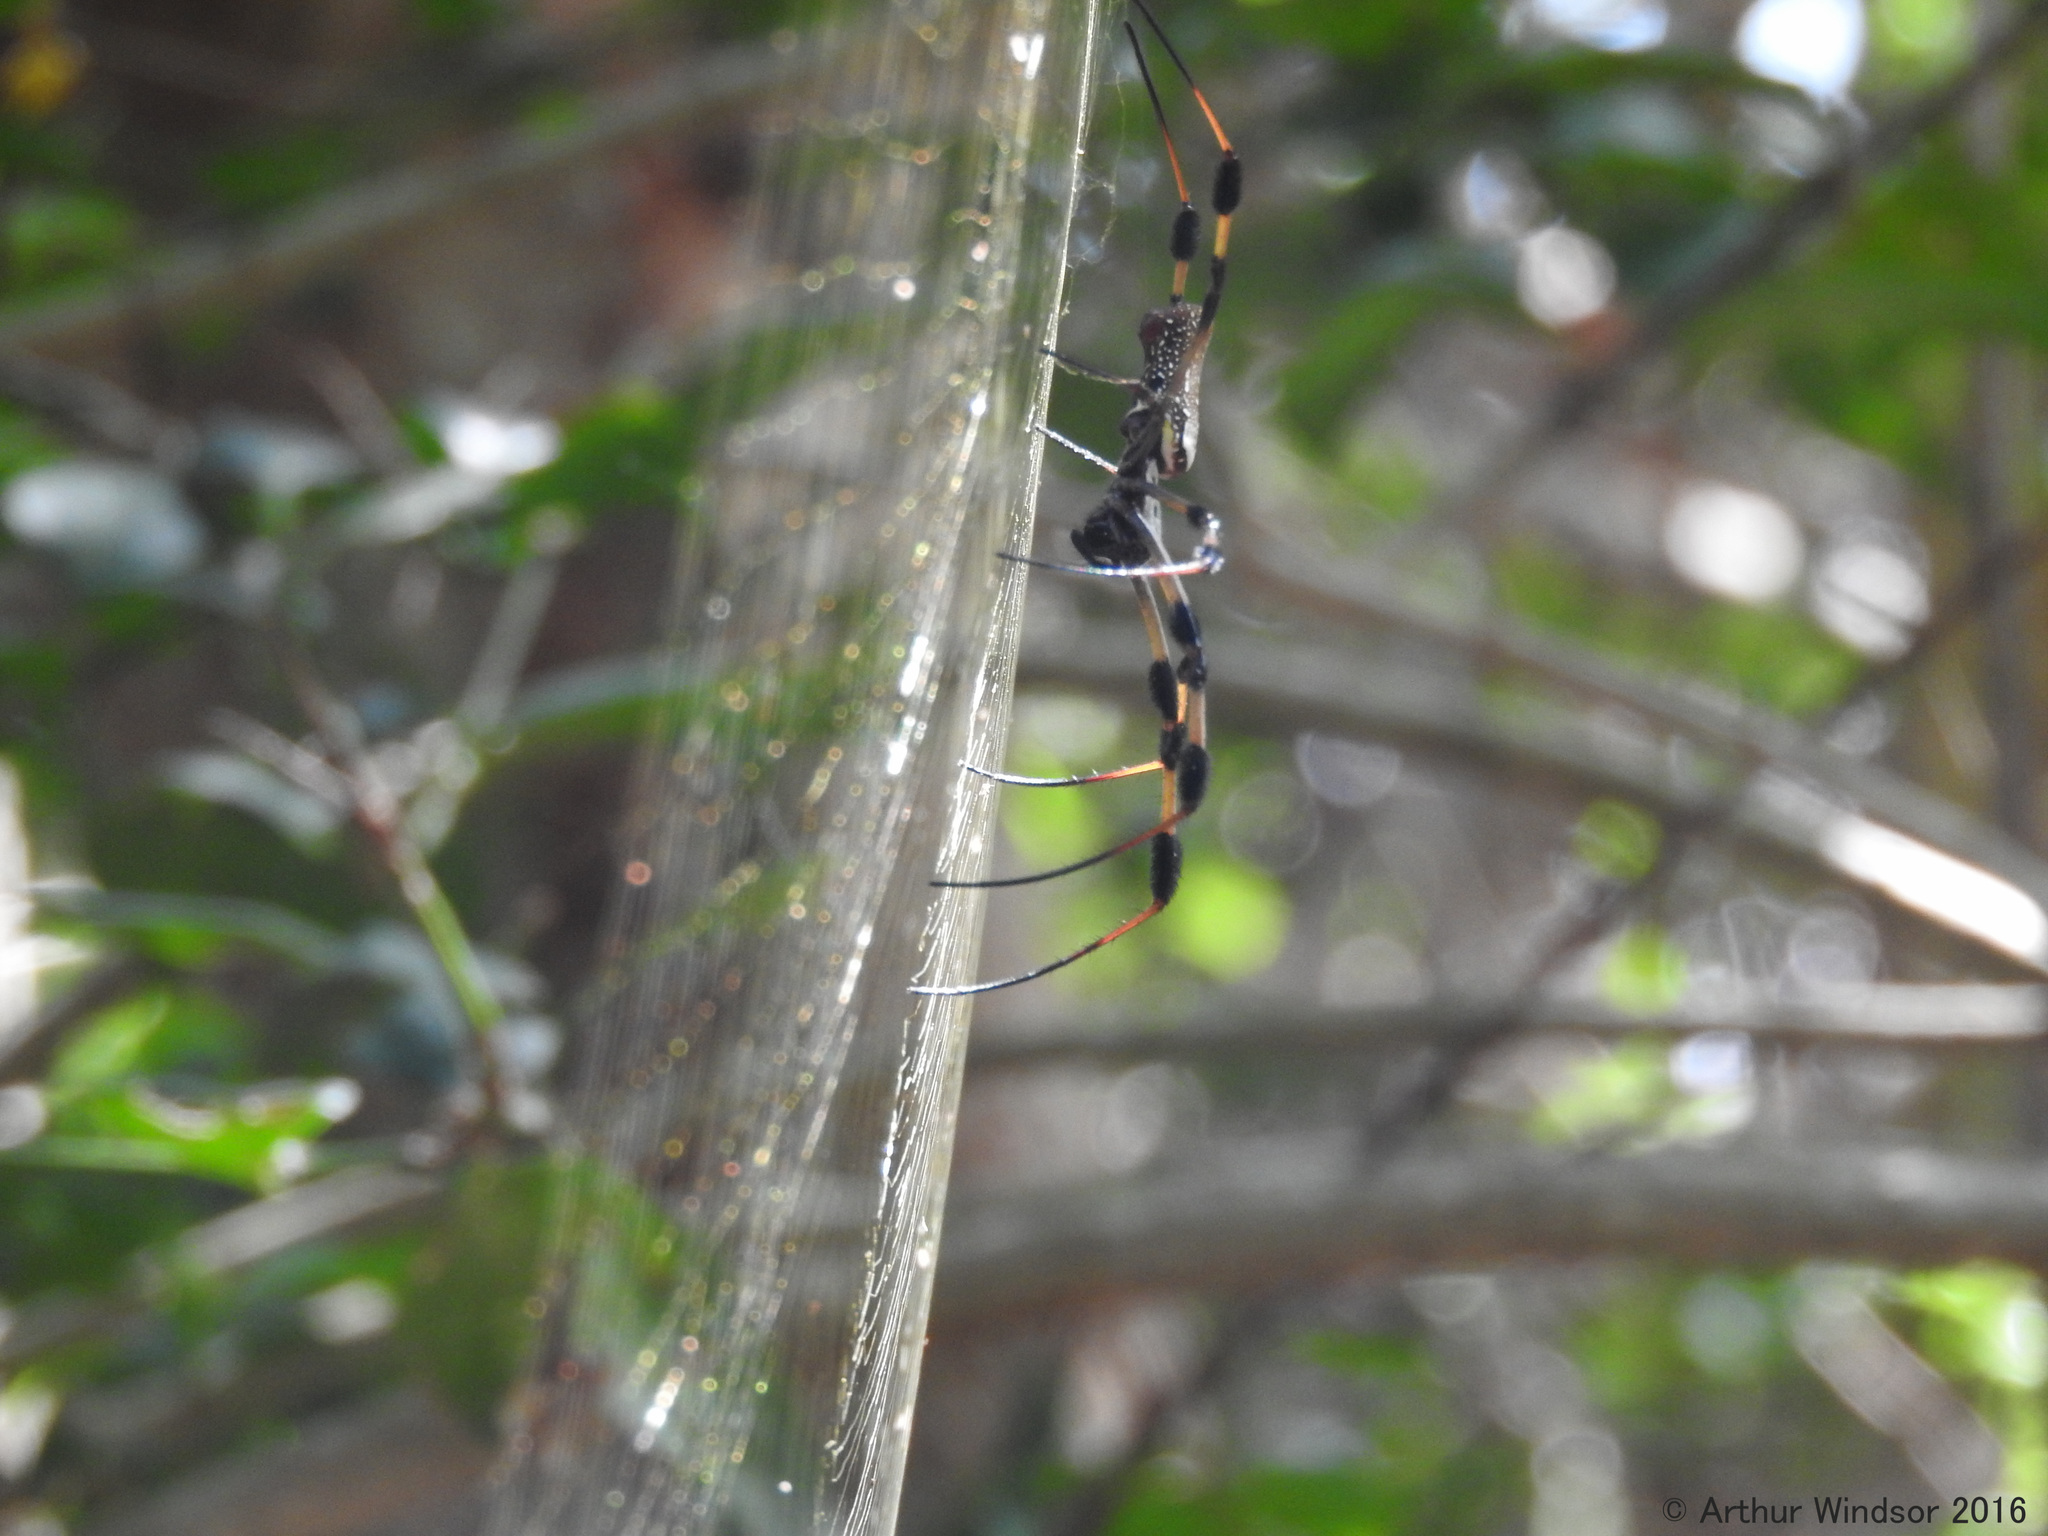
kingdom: Animalia
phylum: Arthropoda
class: Arachnida
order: Araneae
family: Araneidae
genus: Trichonephila
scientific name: Trichonephila clavipes
